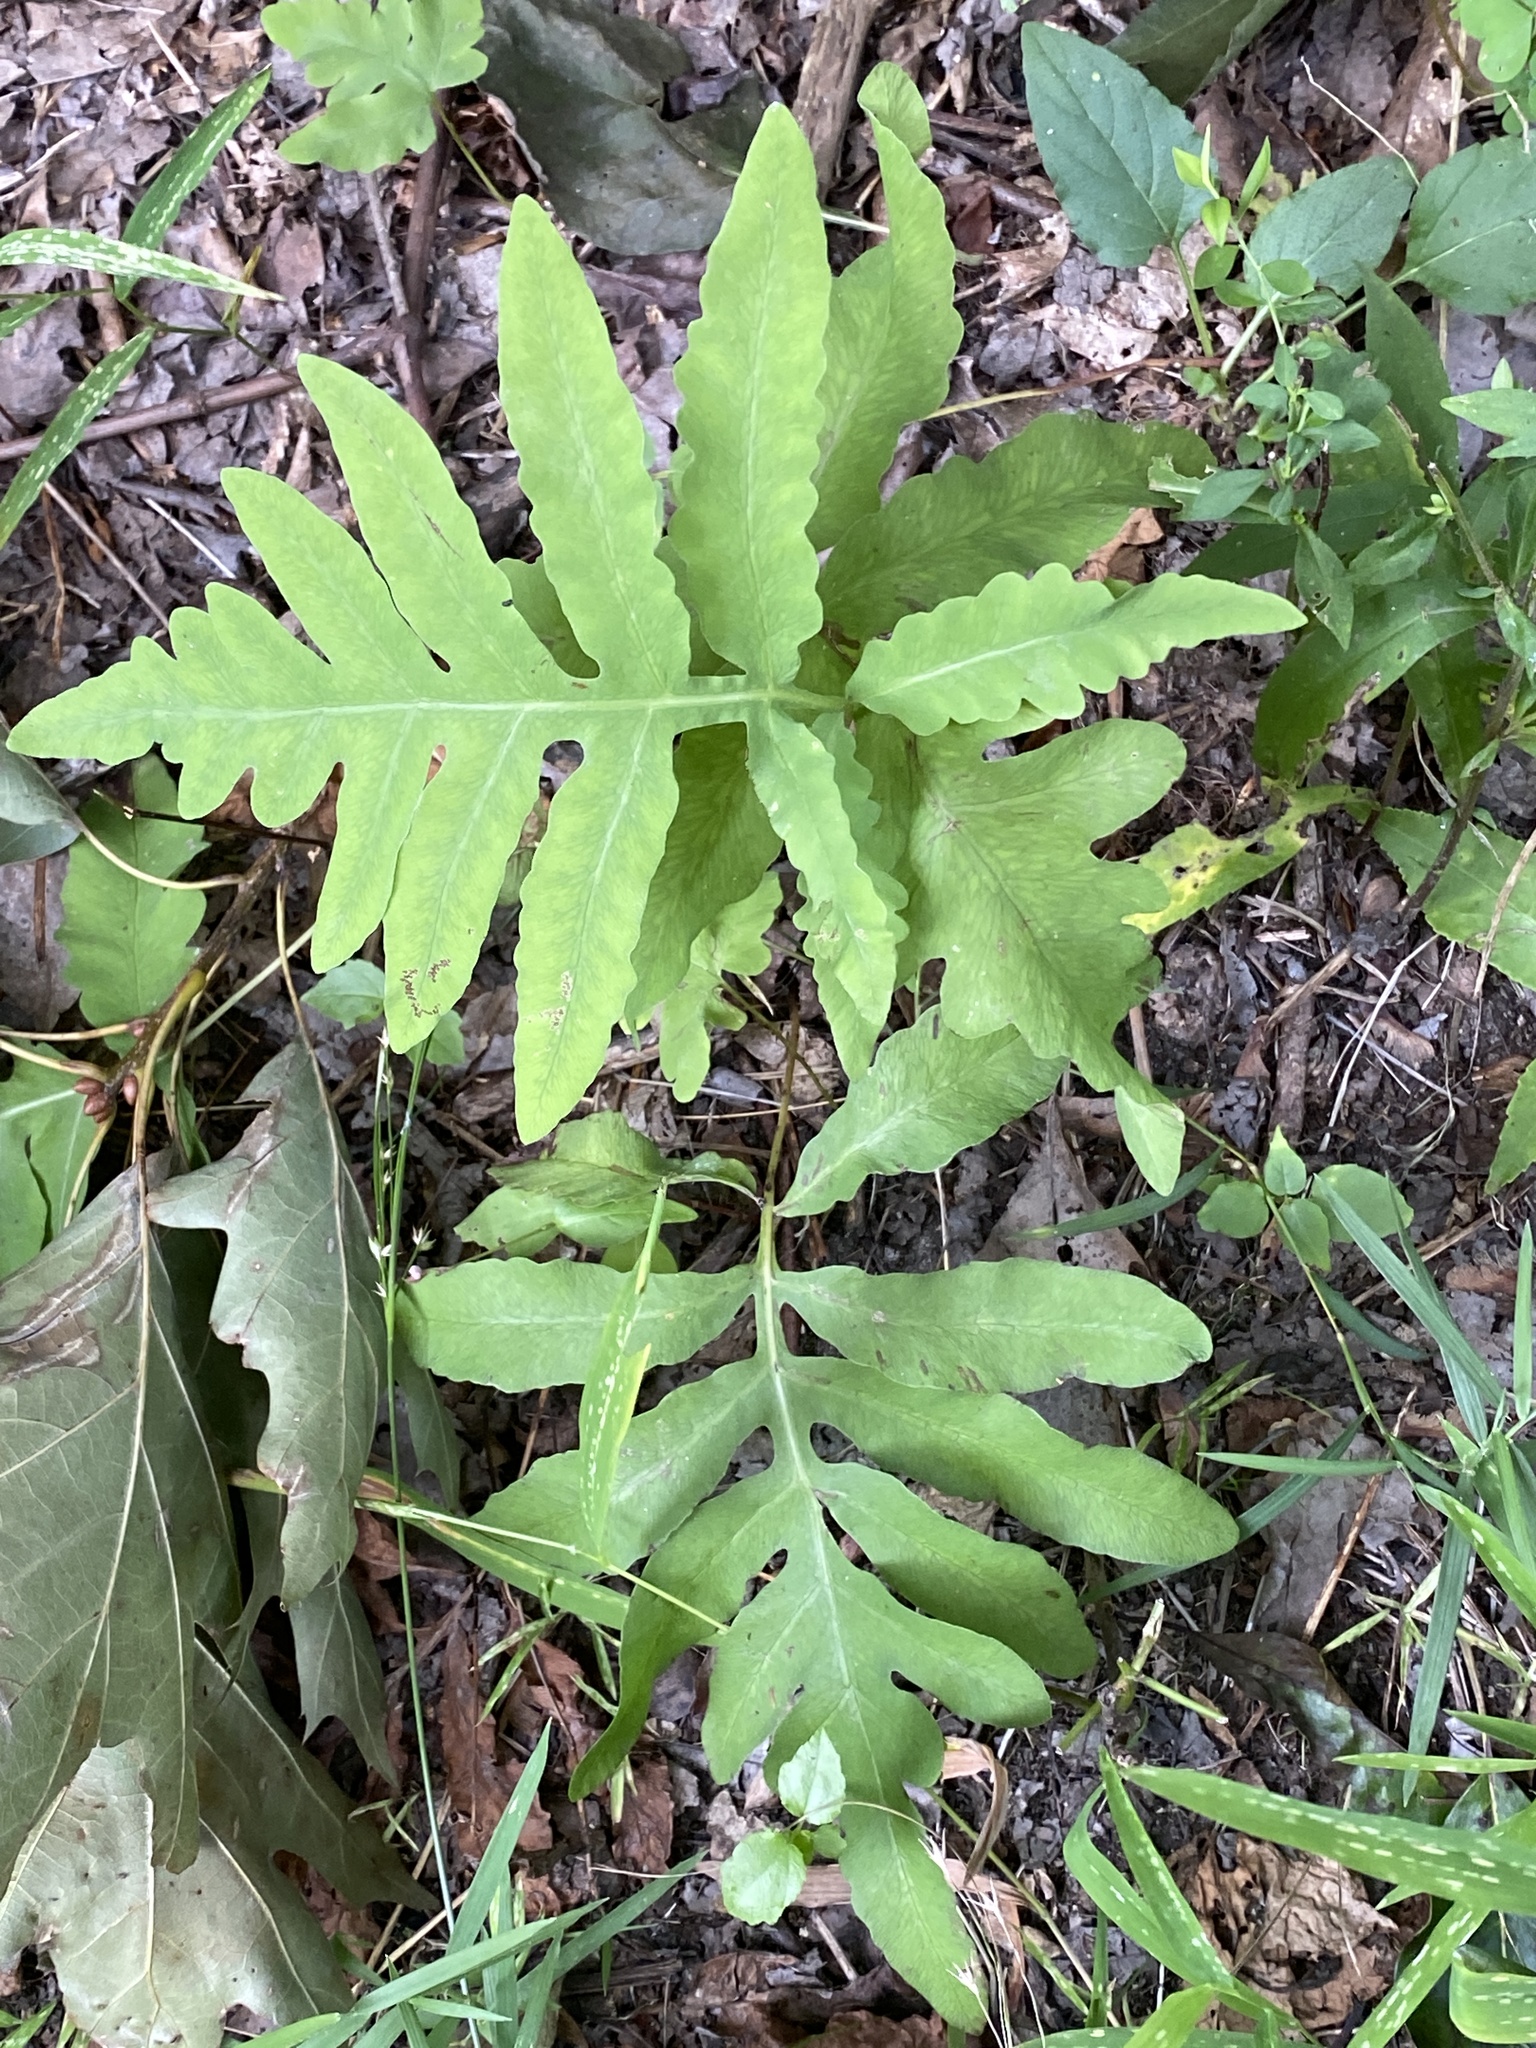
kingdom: Plantae
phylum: Tracheophyta
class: Polypodiopsida
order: Polypodiales
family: Onocleaceae
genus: Onoclea
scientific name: Onoclea sensibilis
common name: Sensitive fern
